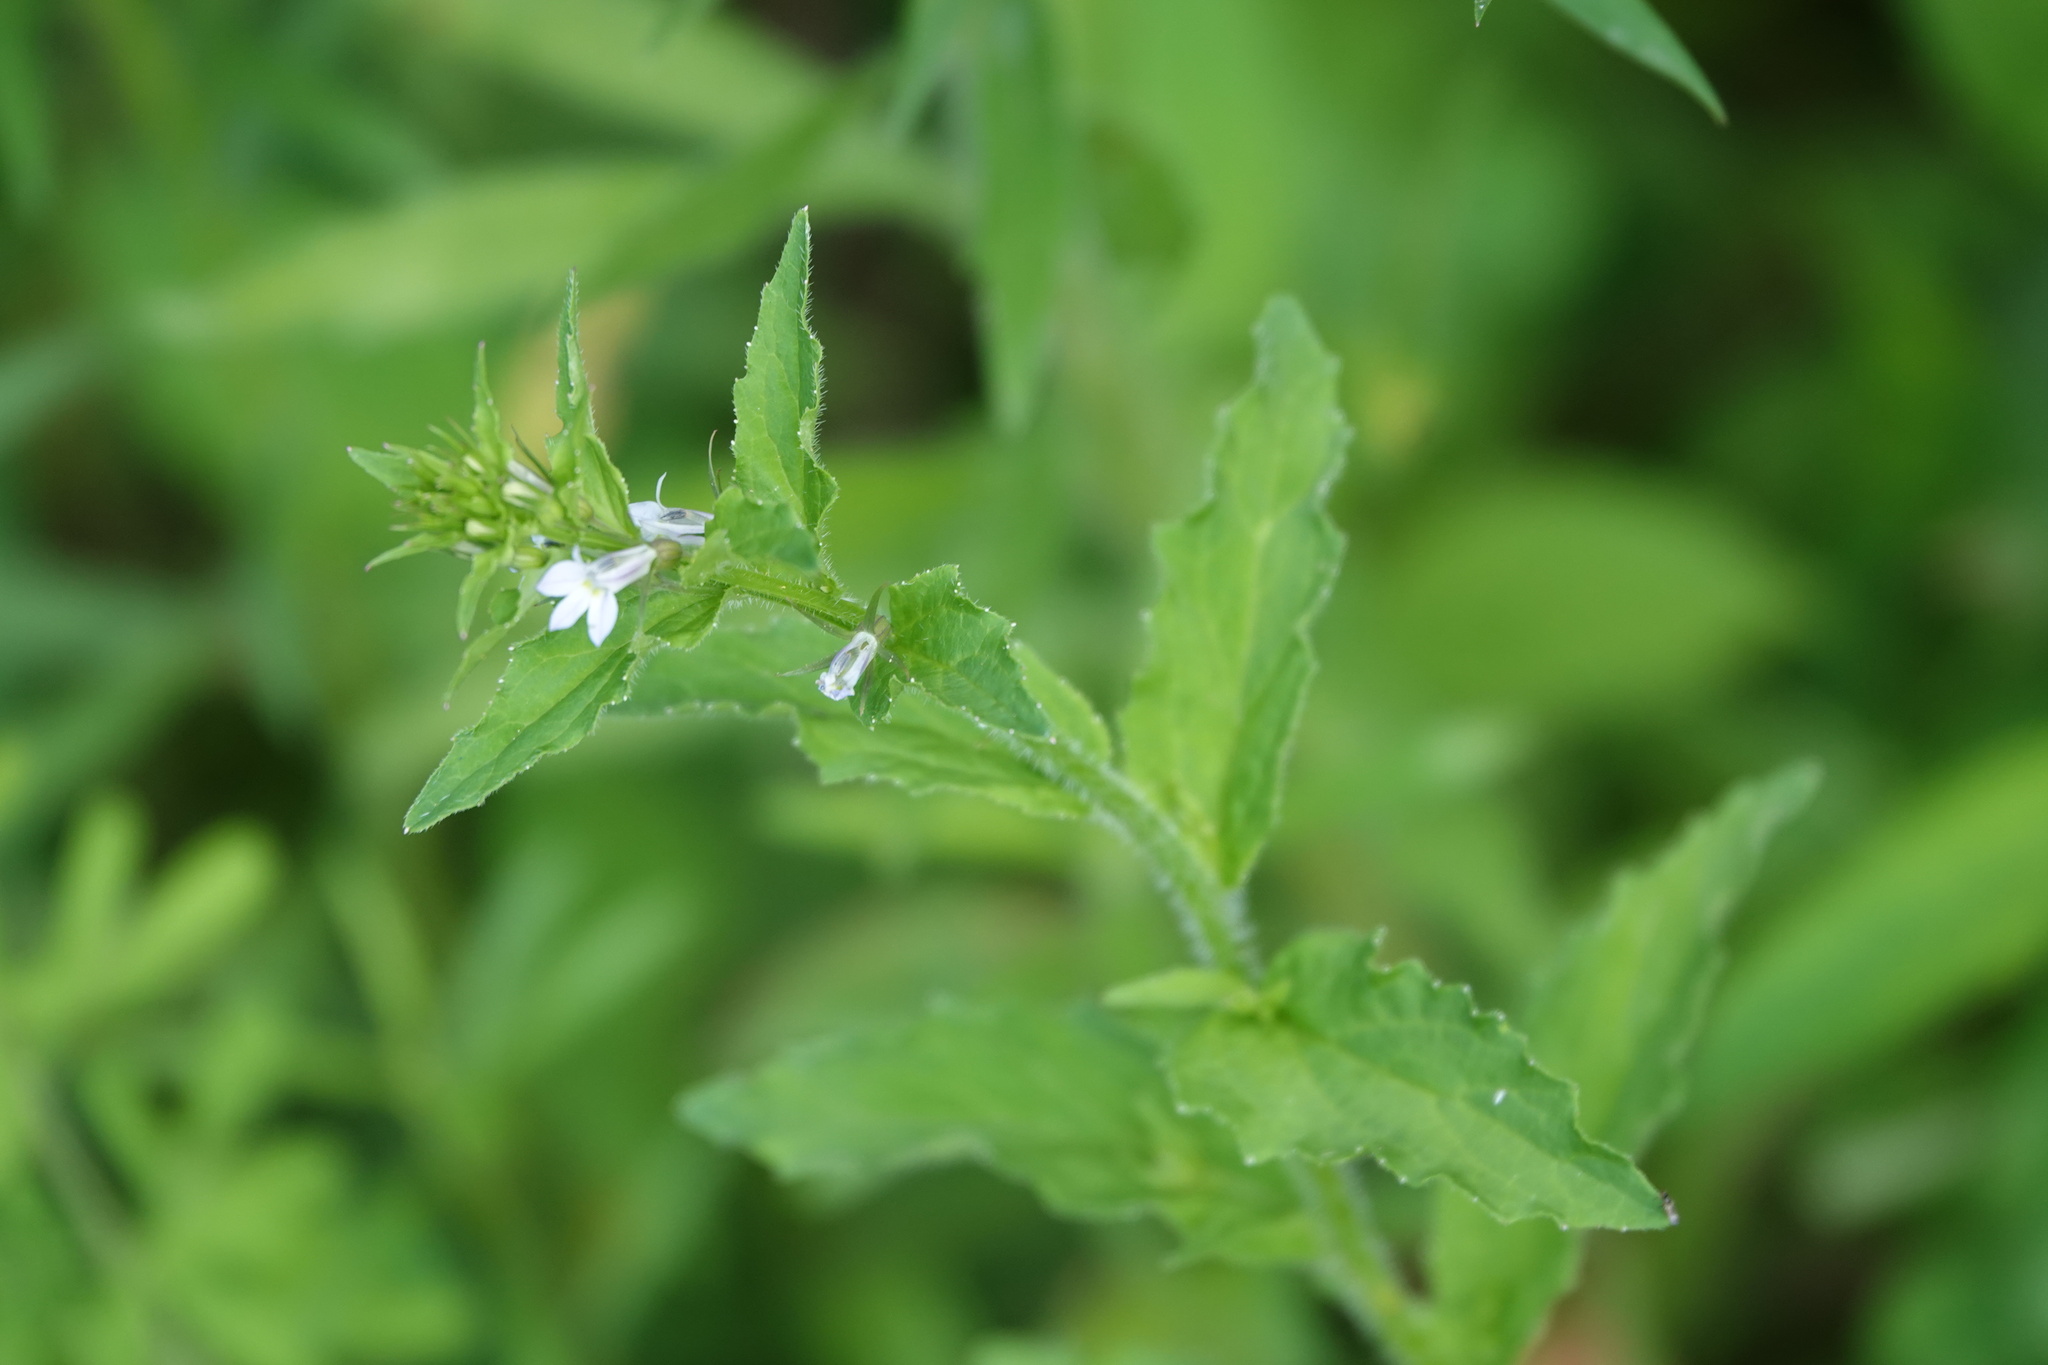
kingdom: Plantae
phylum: Tracheophyta
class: Magnoliopsida
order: Asterales
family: Campanulaceae
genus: Lobelia
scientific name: Lobelia inflata
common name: Indian tobacco
